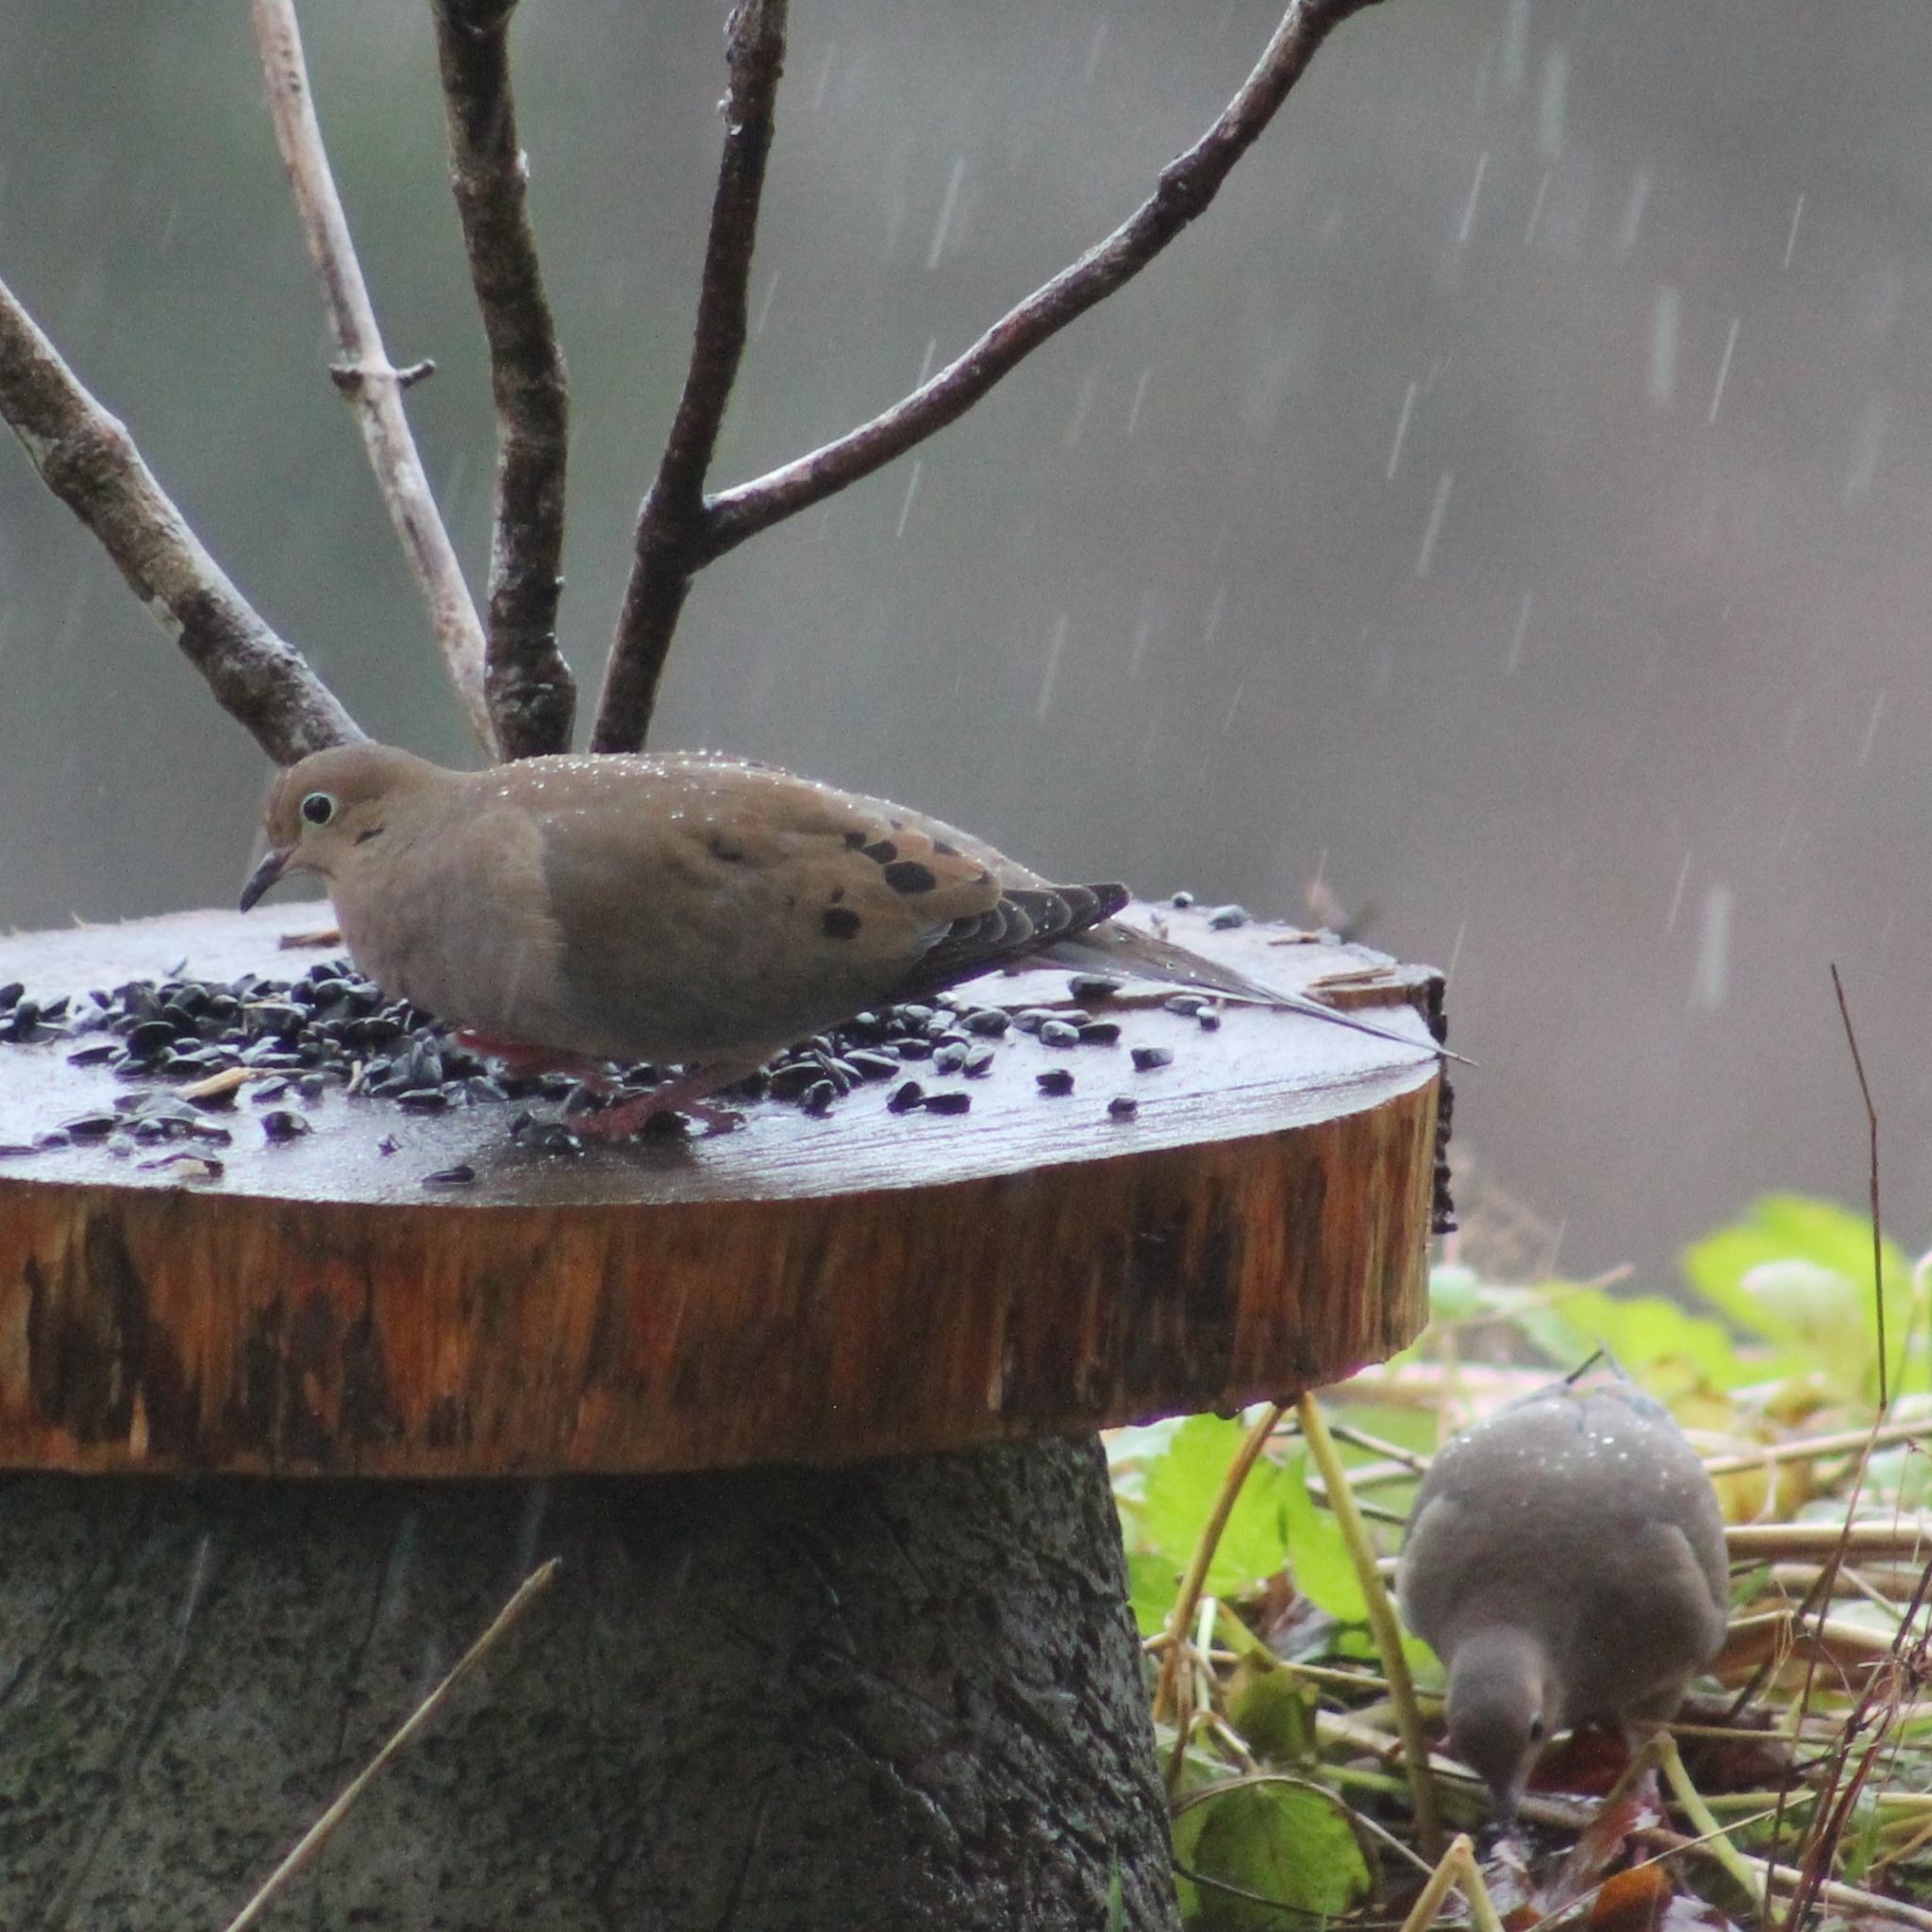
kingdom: Animalia
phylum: Chordata
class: Aves
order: Columbiformes
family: Columbidae
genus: Zenaida
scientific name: Zenaida macroura
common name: Mourning dove
